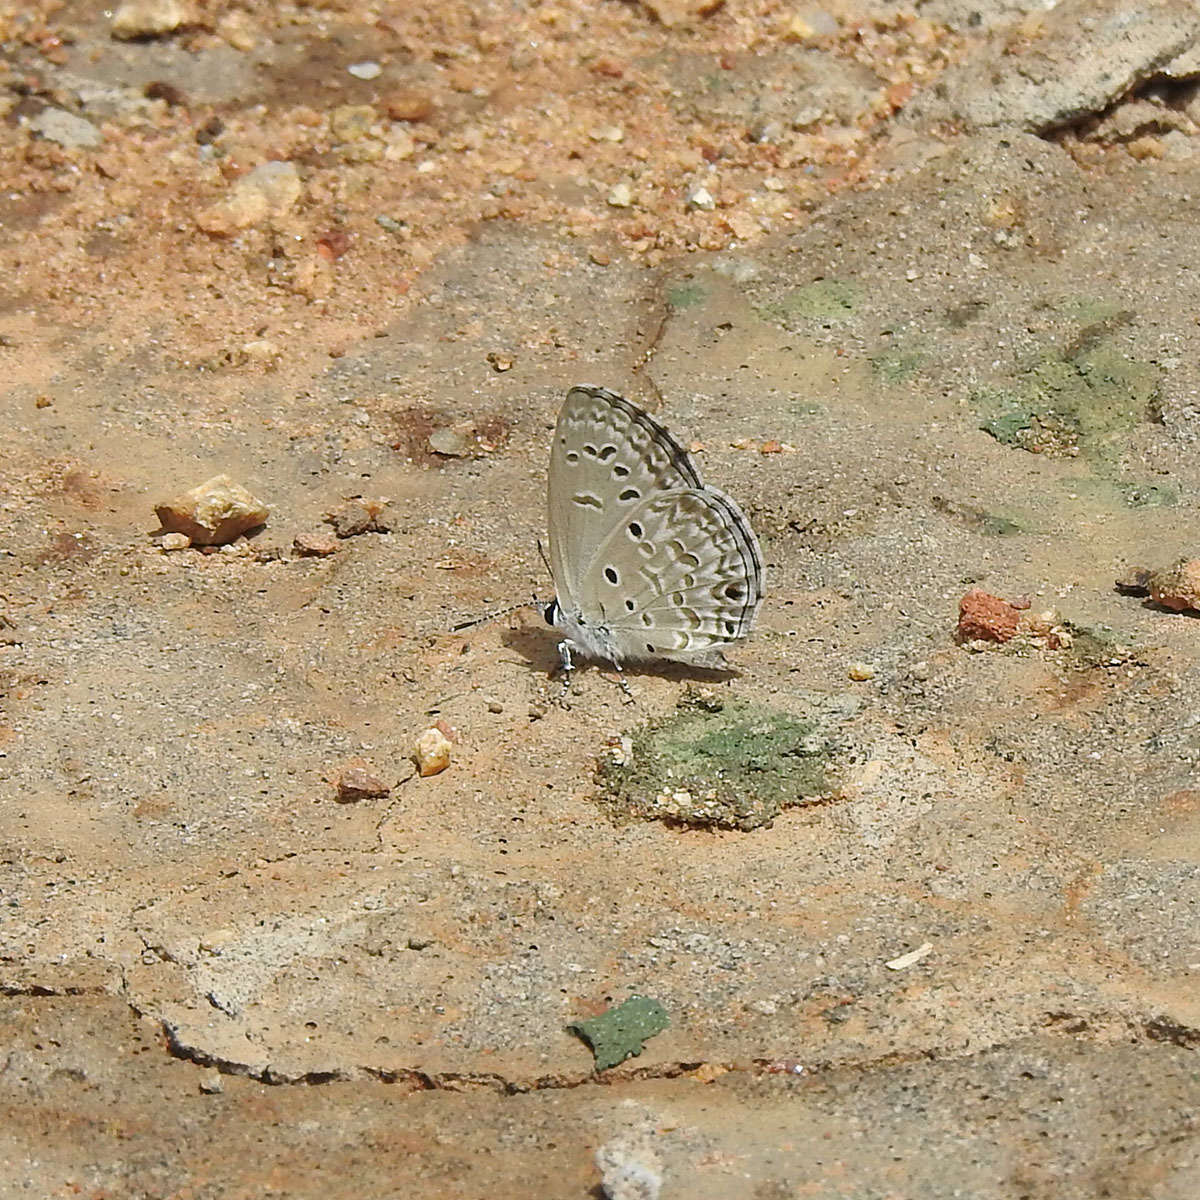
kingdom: Animalia
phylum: Arthropoda
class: Insecta
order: Lepidoptera
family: Lycaenidae
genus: Chilades
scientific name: Chilades laius
